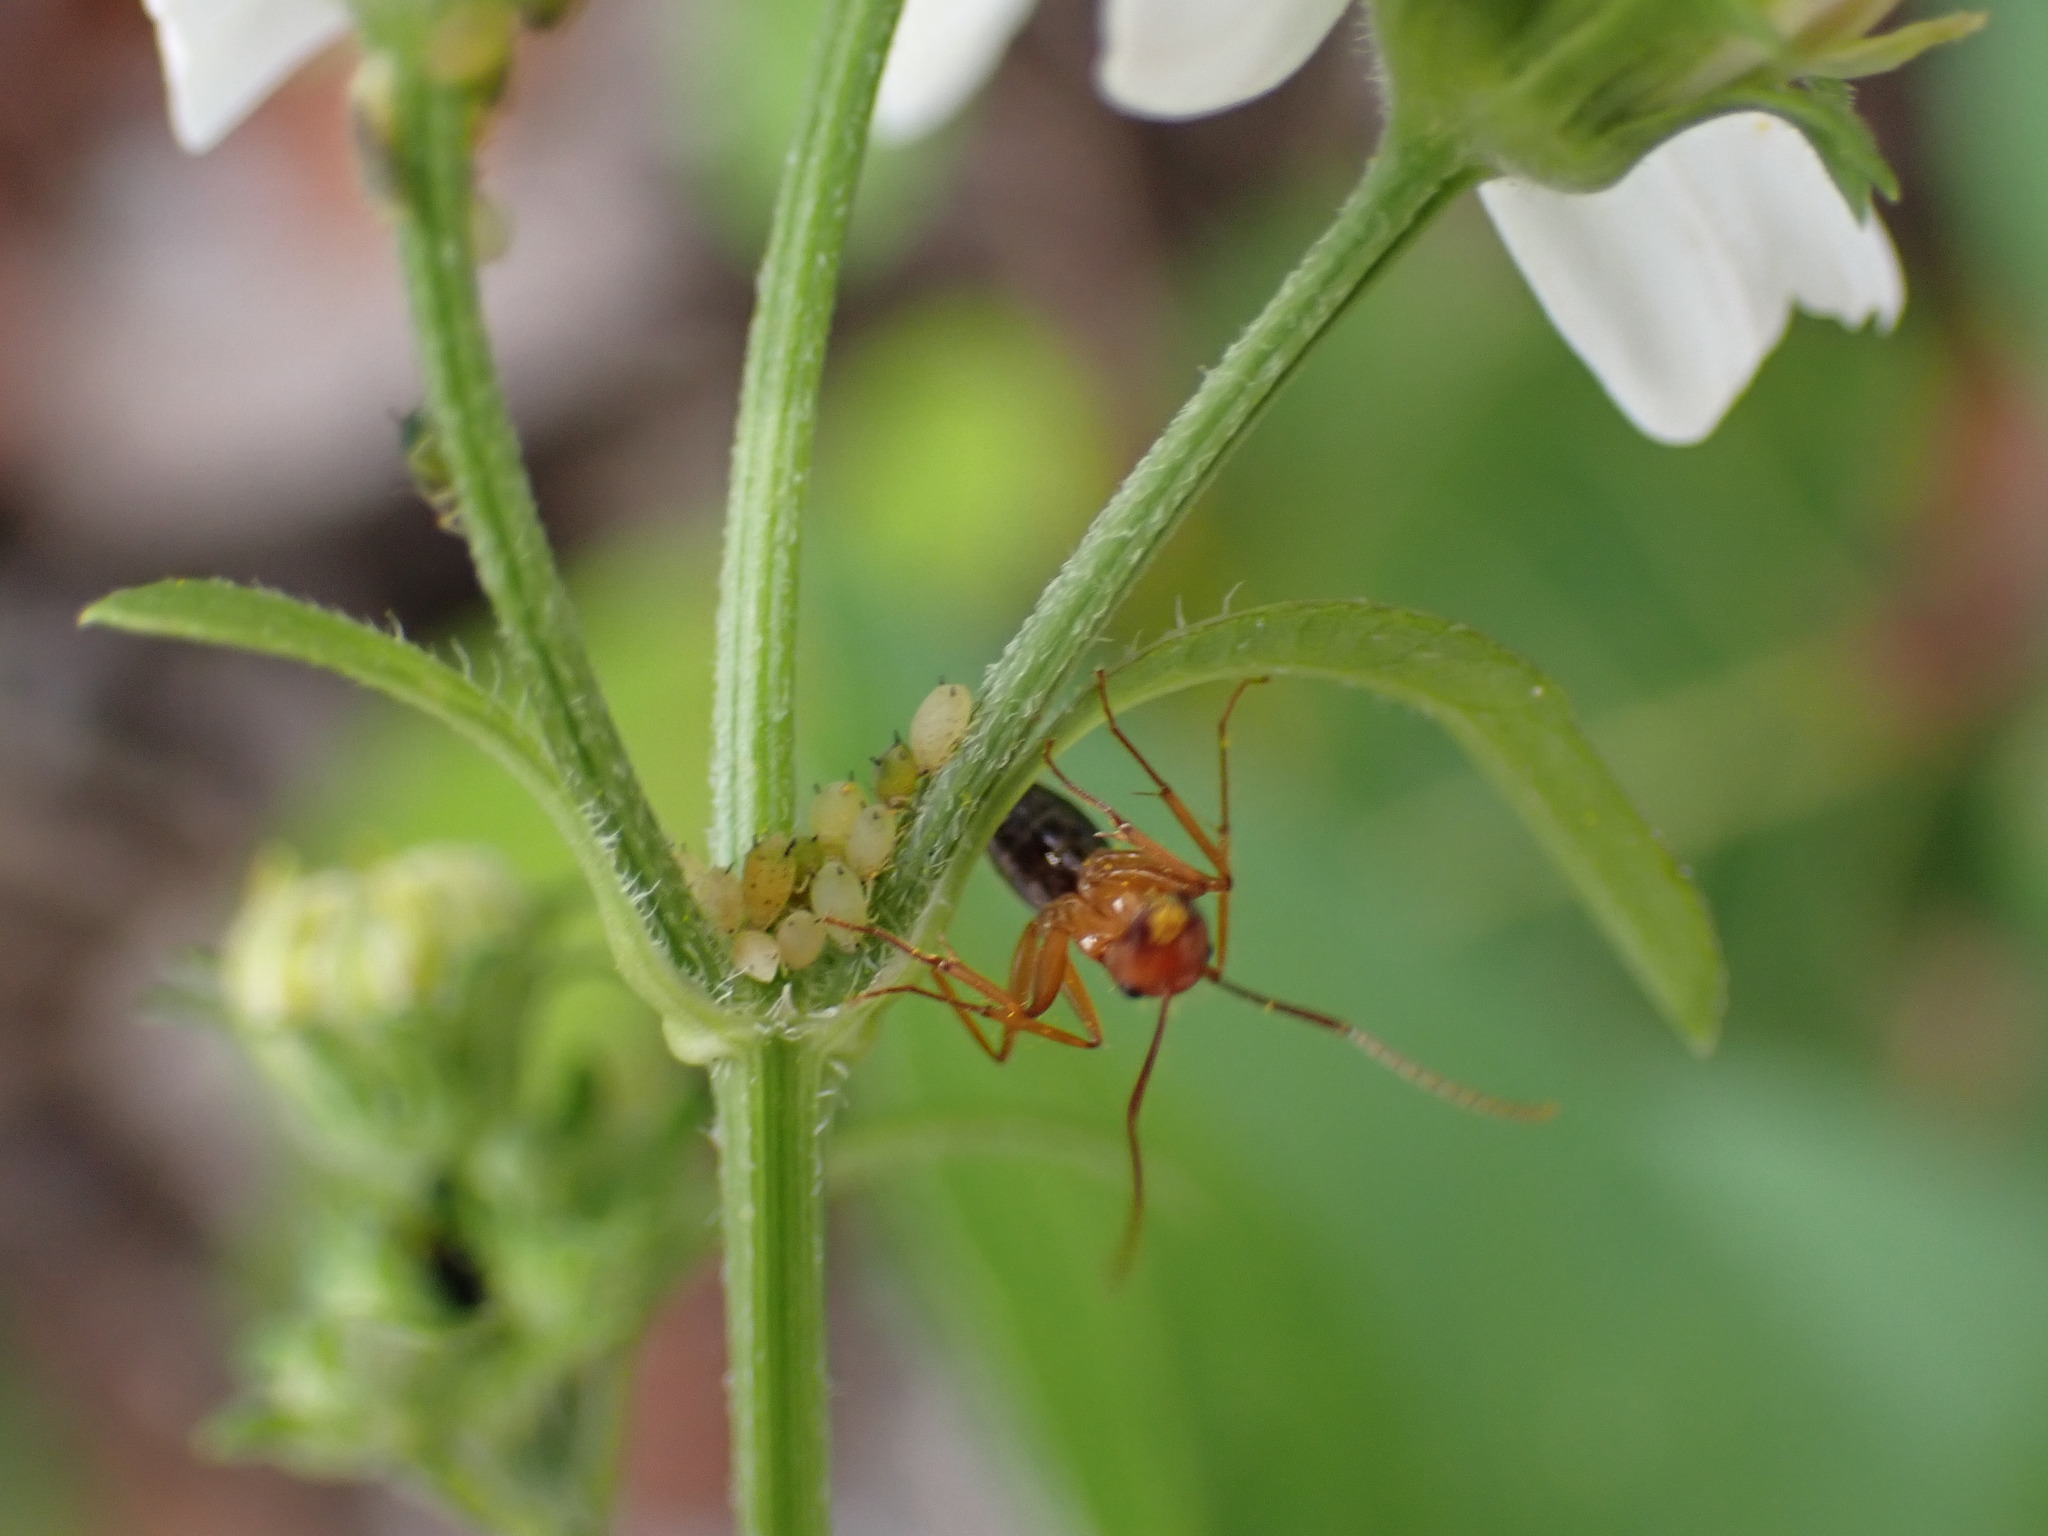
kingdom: Animalia
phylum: Arthropoda
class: Insecta
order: Hymenoptera
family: Formicidae
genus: Camponotus
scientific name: Camponotus floridanus
